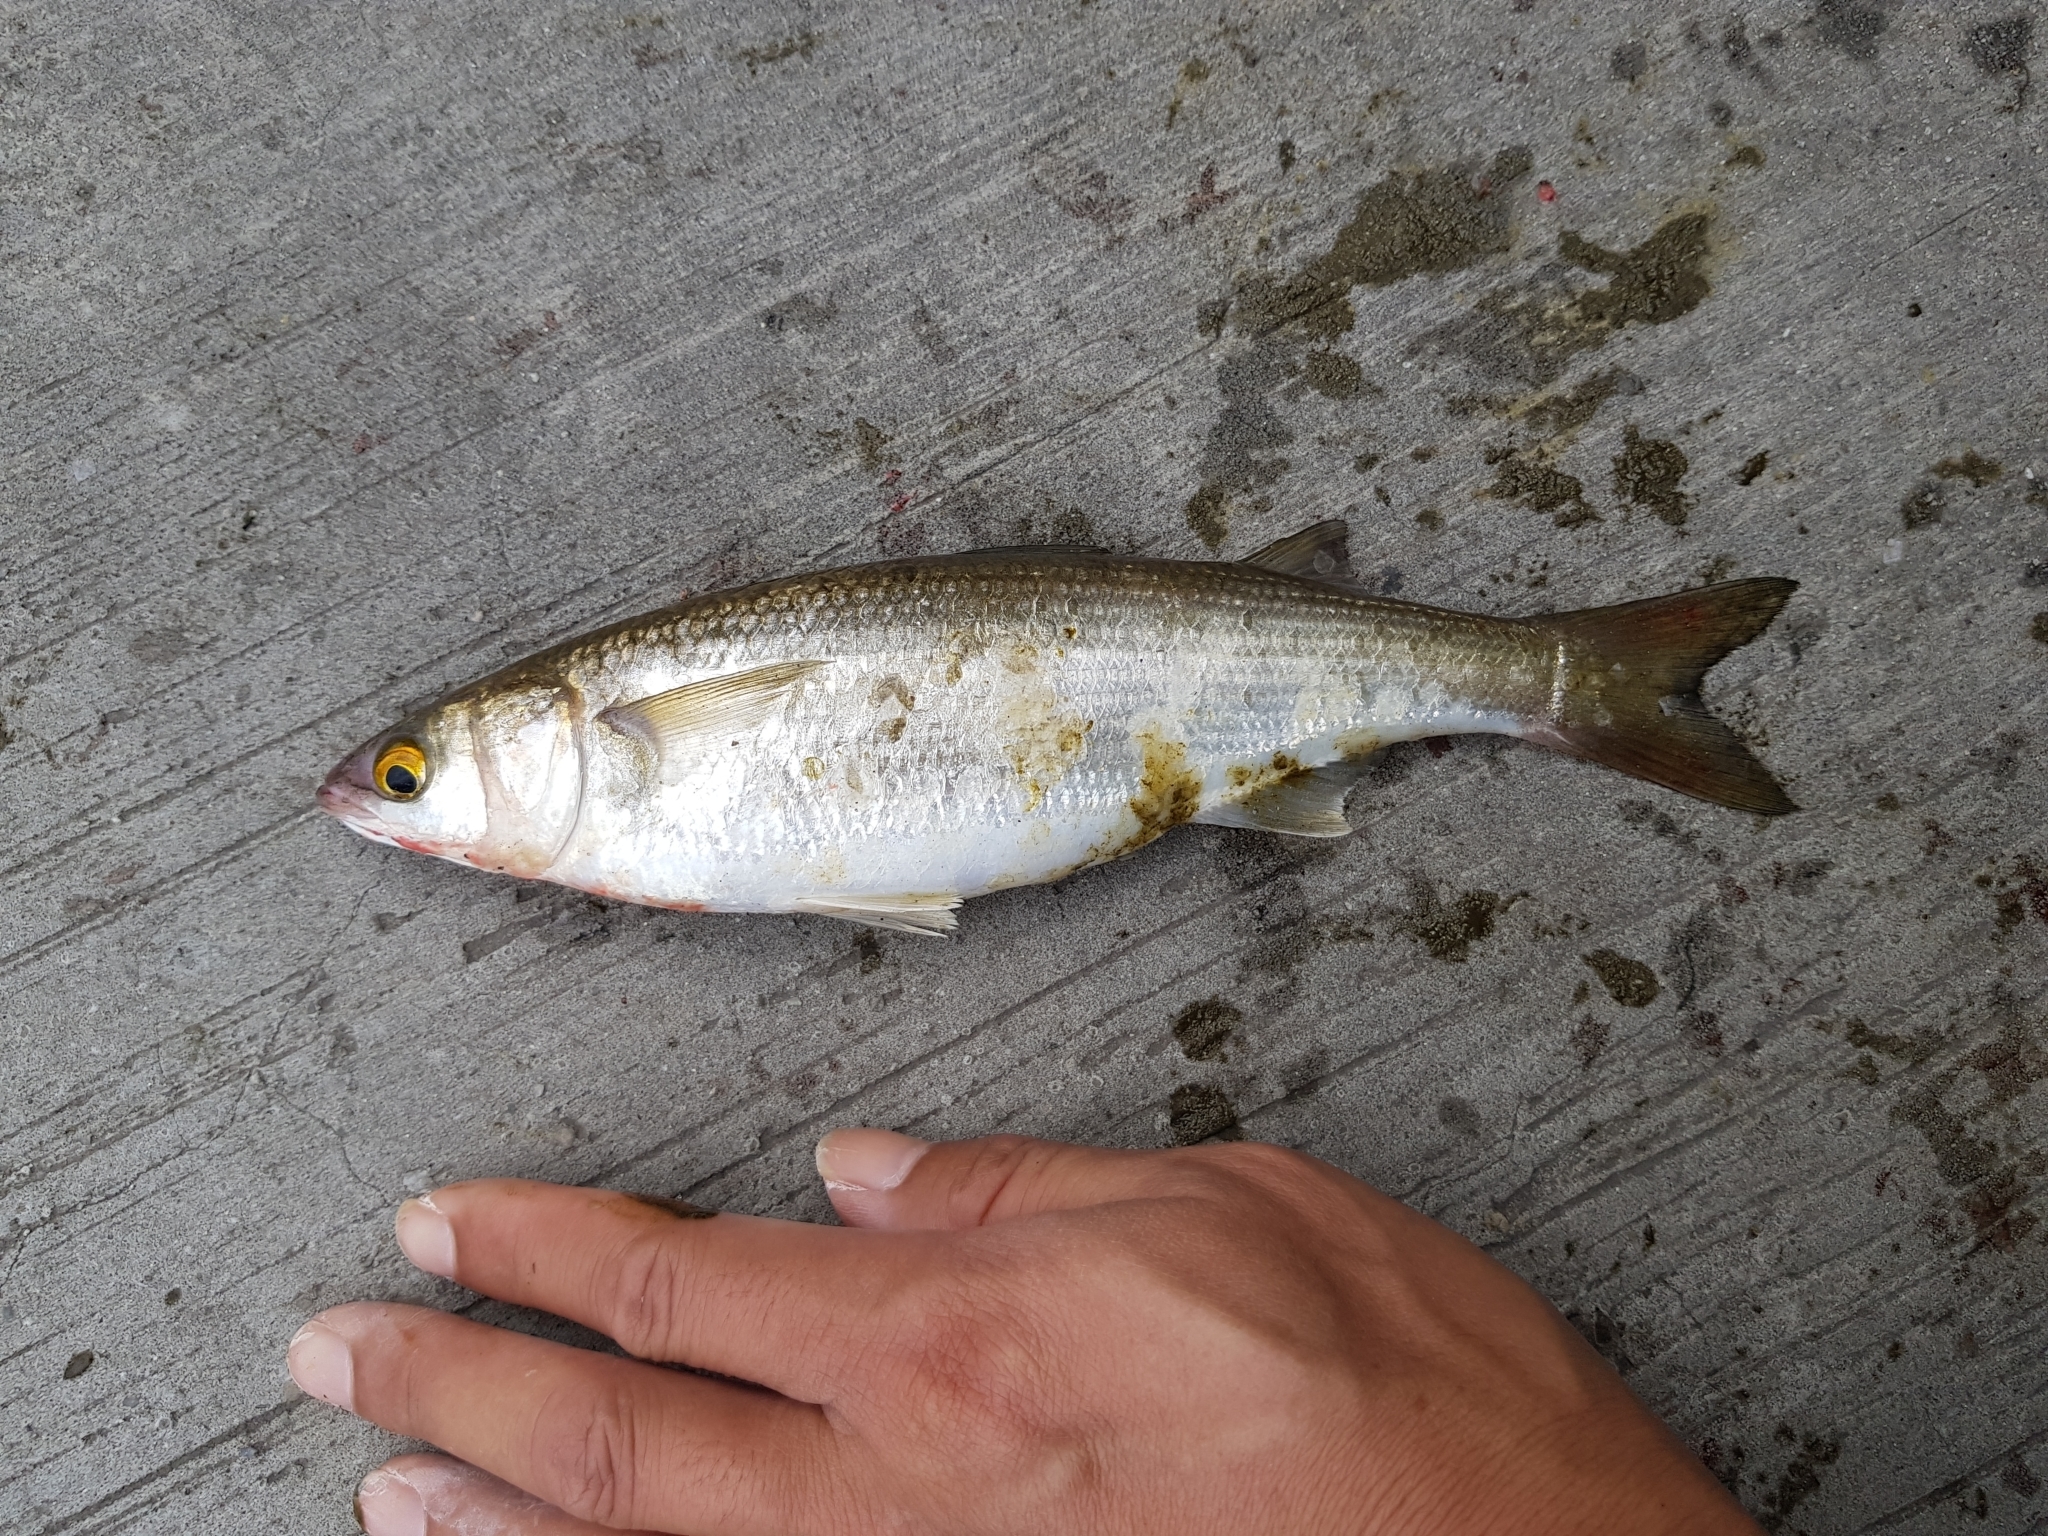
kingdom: Animalia
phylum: Chordata
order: Mugiliformes
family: Mugilidae
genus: Aldrichetta
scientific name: Aldrichetta forsteri
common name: Yellow-eye mullet
